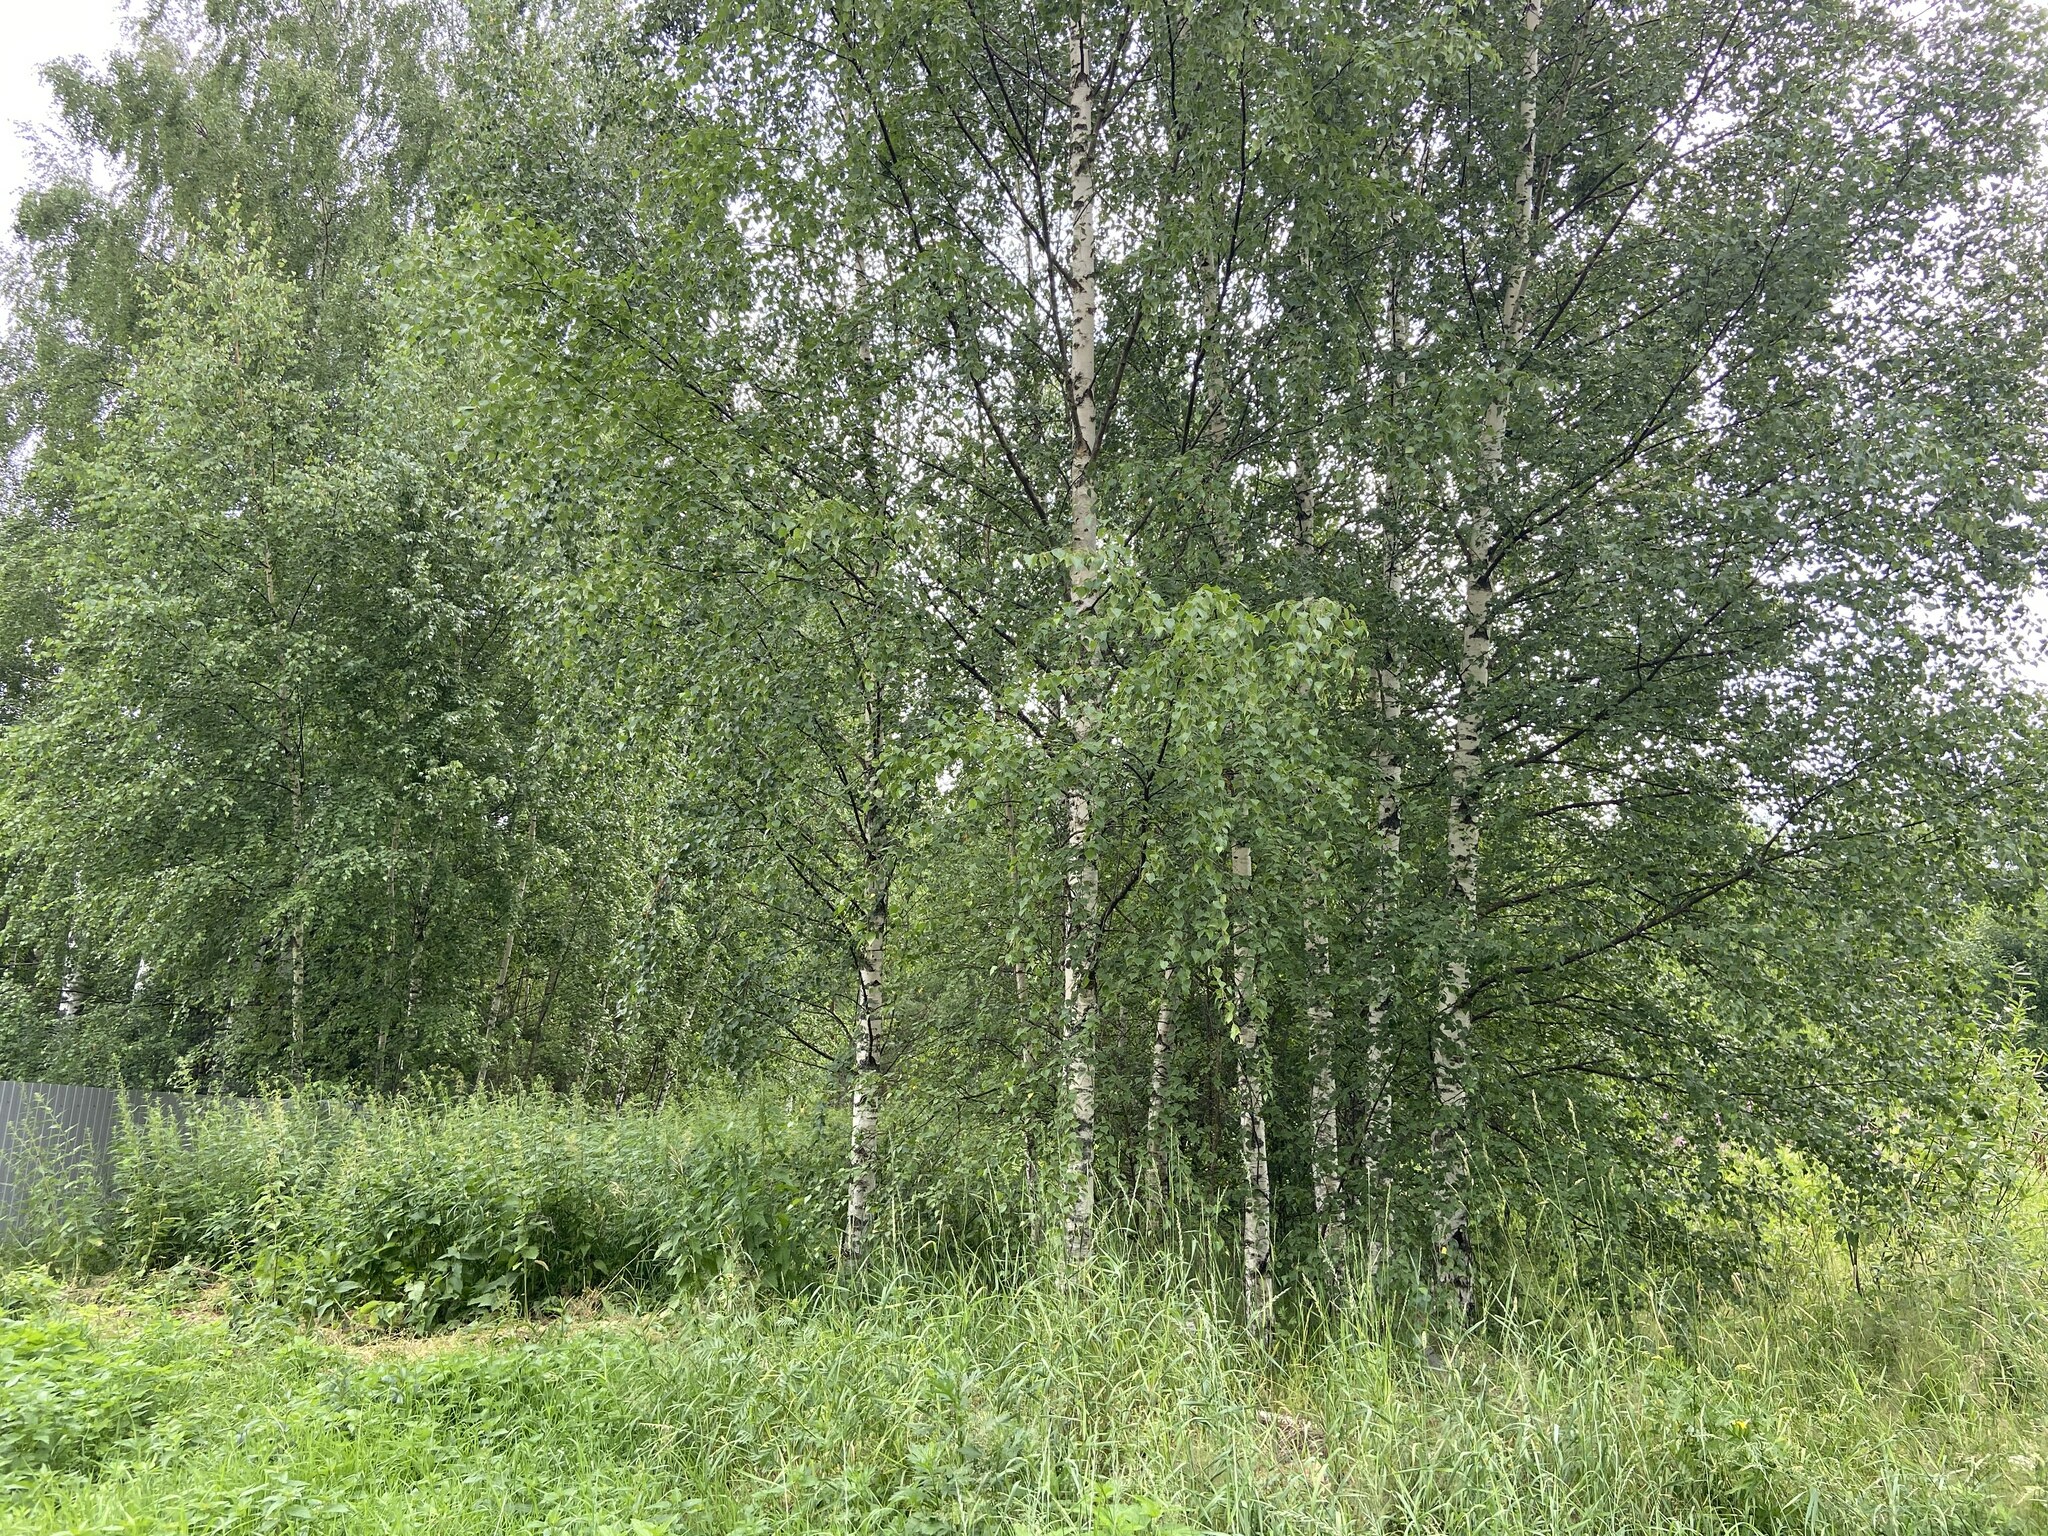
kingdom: Plantae
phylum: Tracheophyta
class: Magnoliopsida
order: Fagales
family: Betulaceae
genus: Betula
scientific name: Betula pendula
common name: Silver birch
